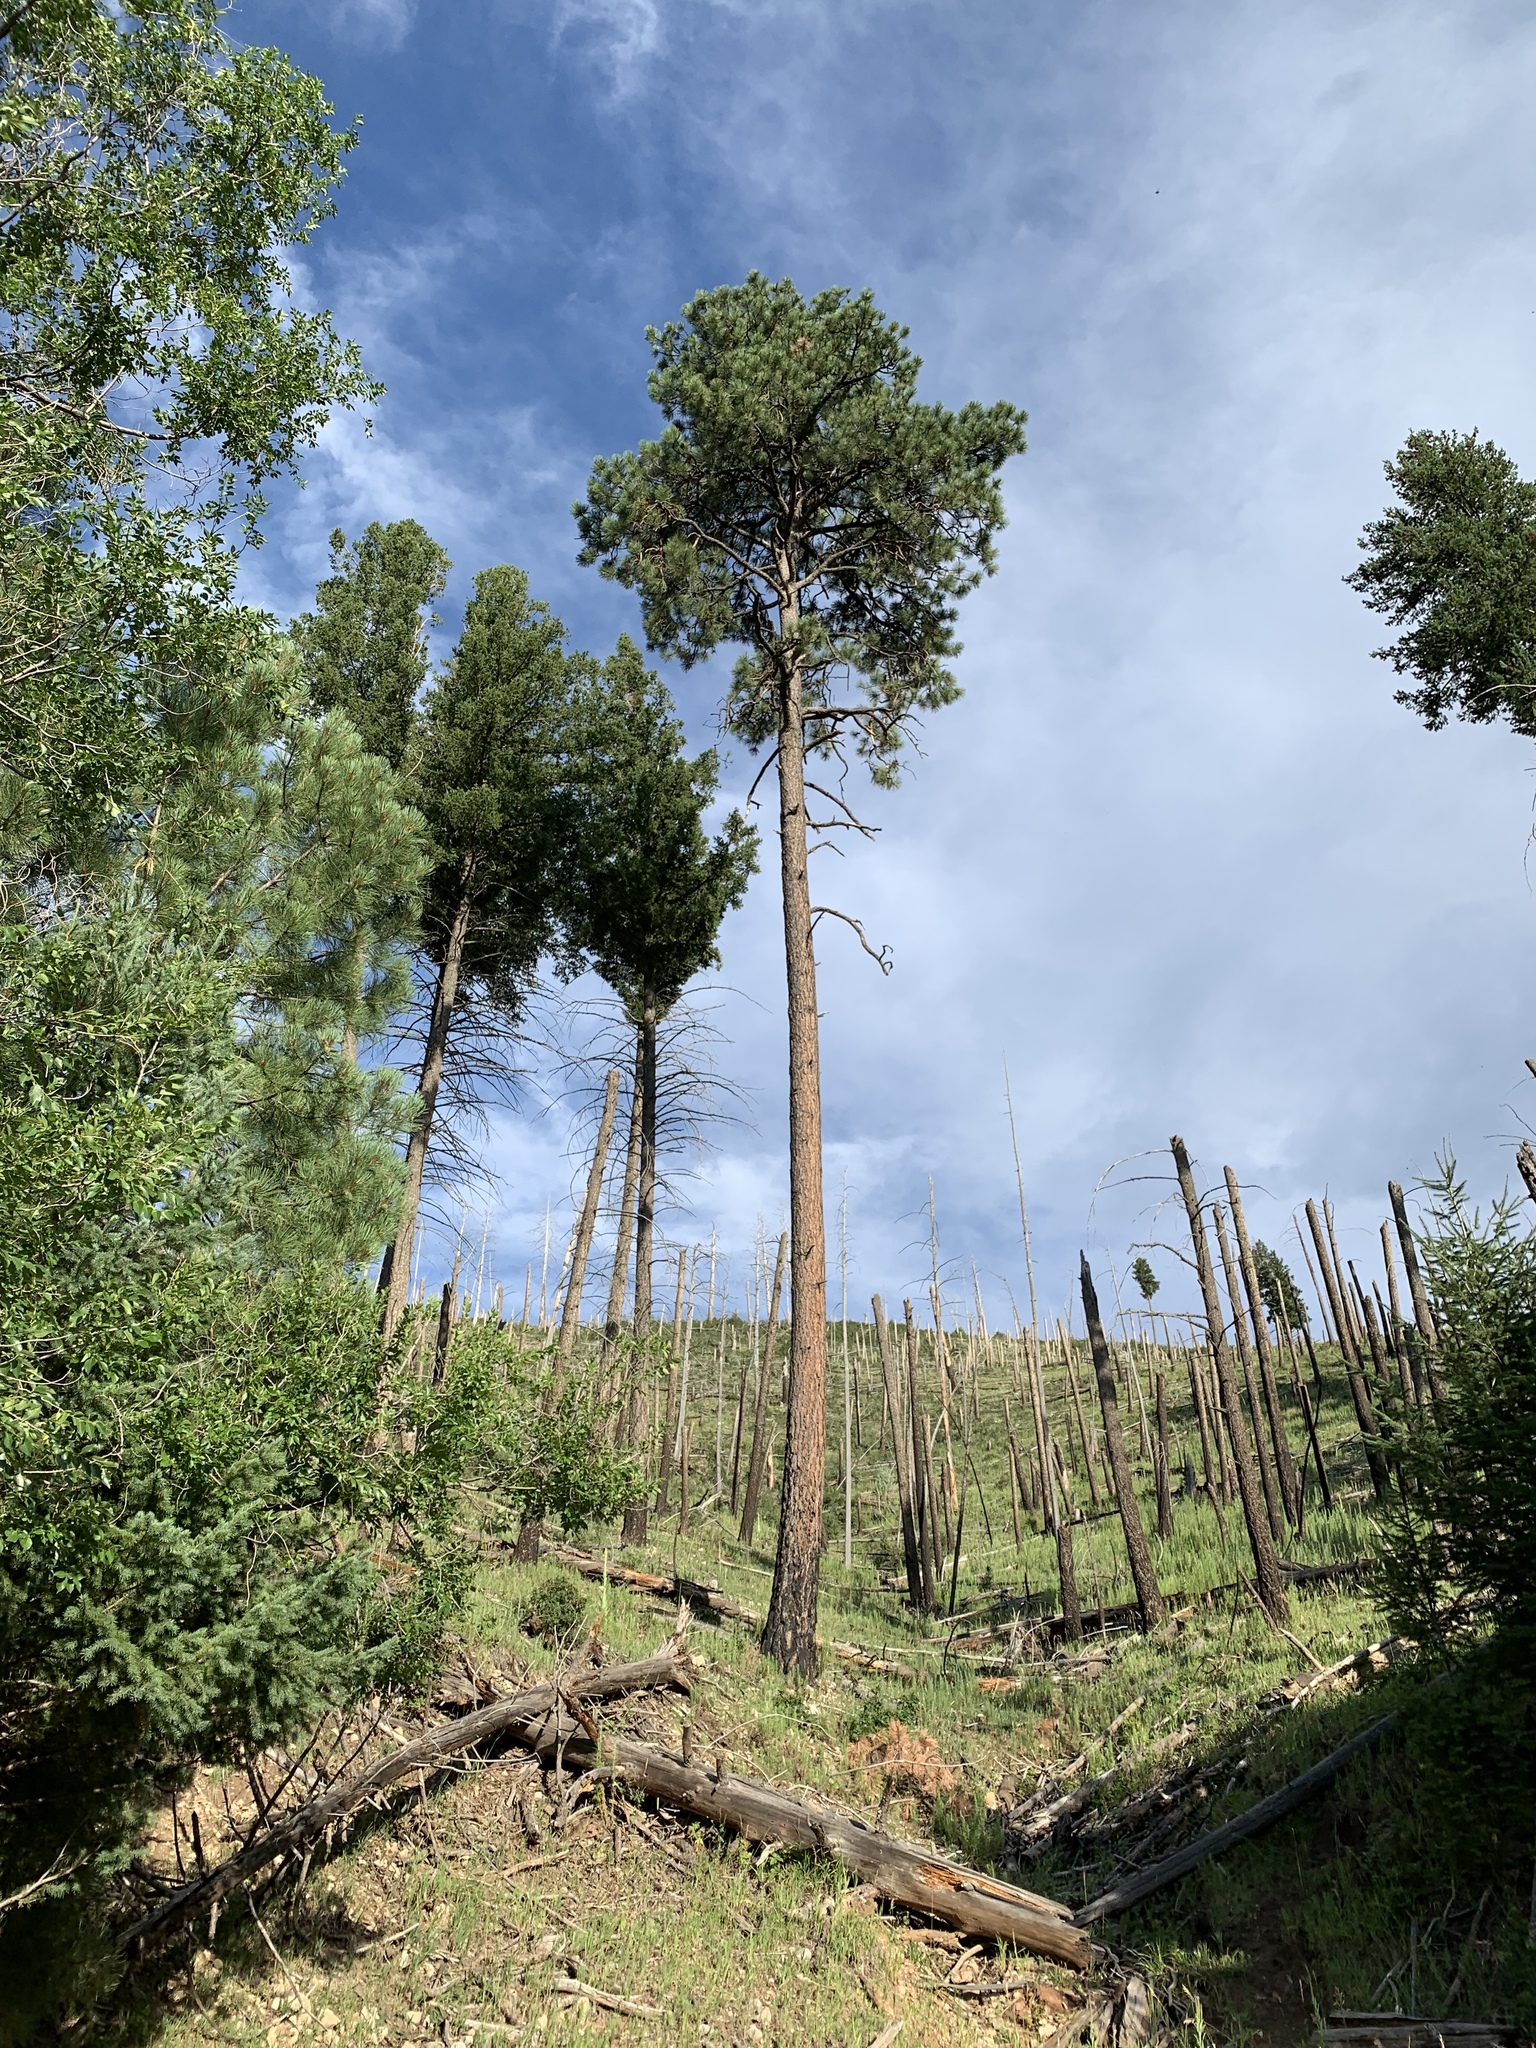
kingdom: Plantae
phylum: Tracheophyta
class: Pinopsida
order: Pinales
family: Pinaceae
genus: Pinus
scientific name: Pinus ponderosa
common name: Western yellow-pine
